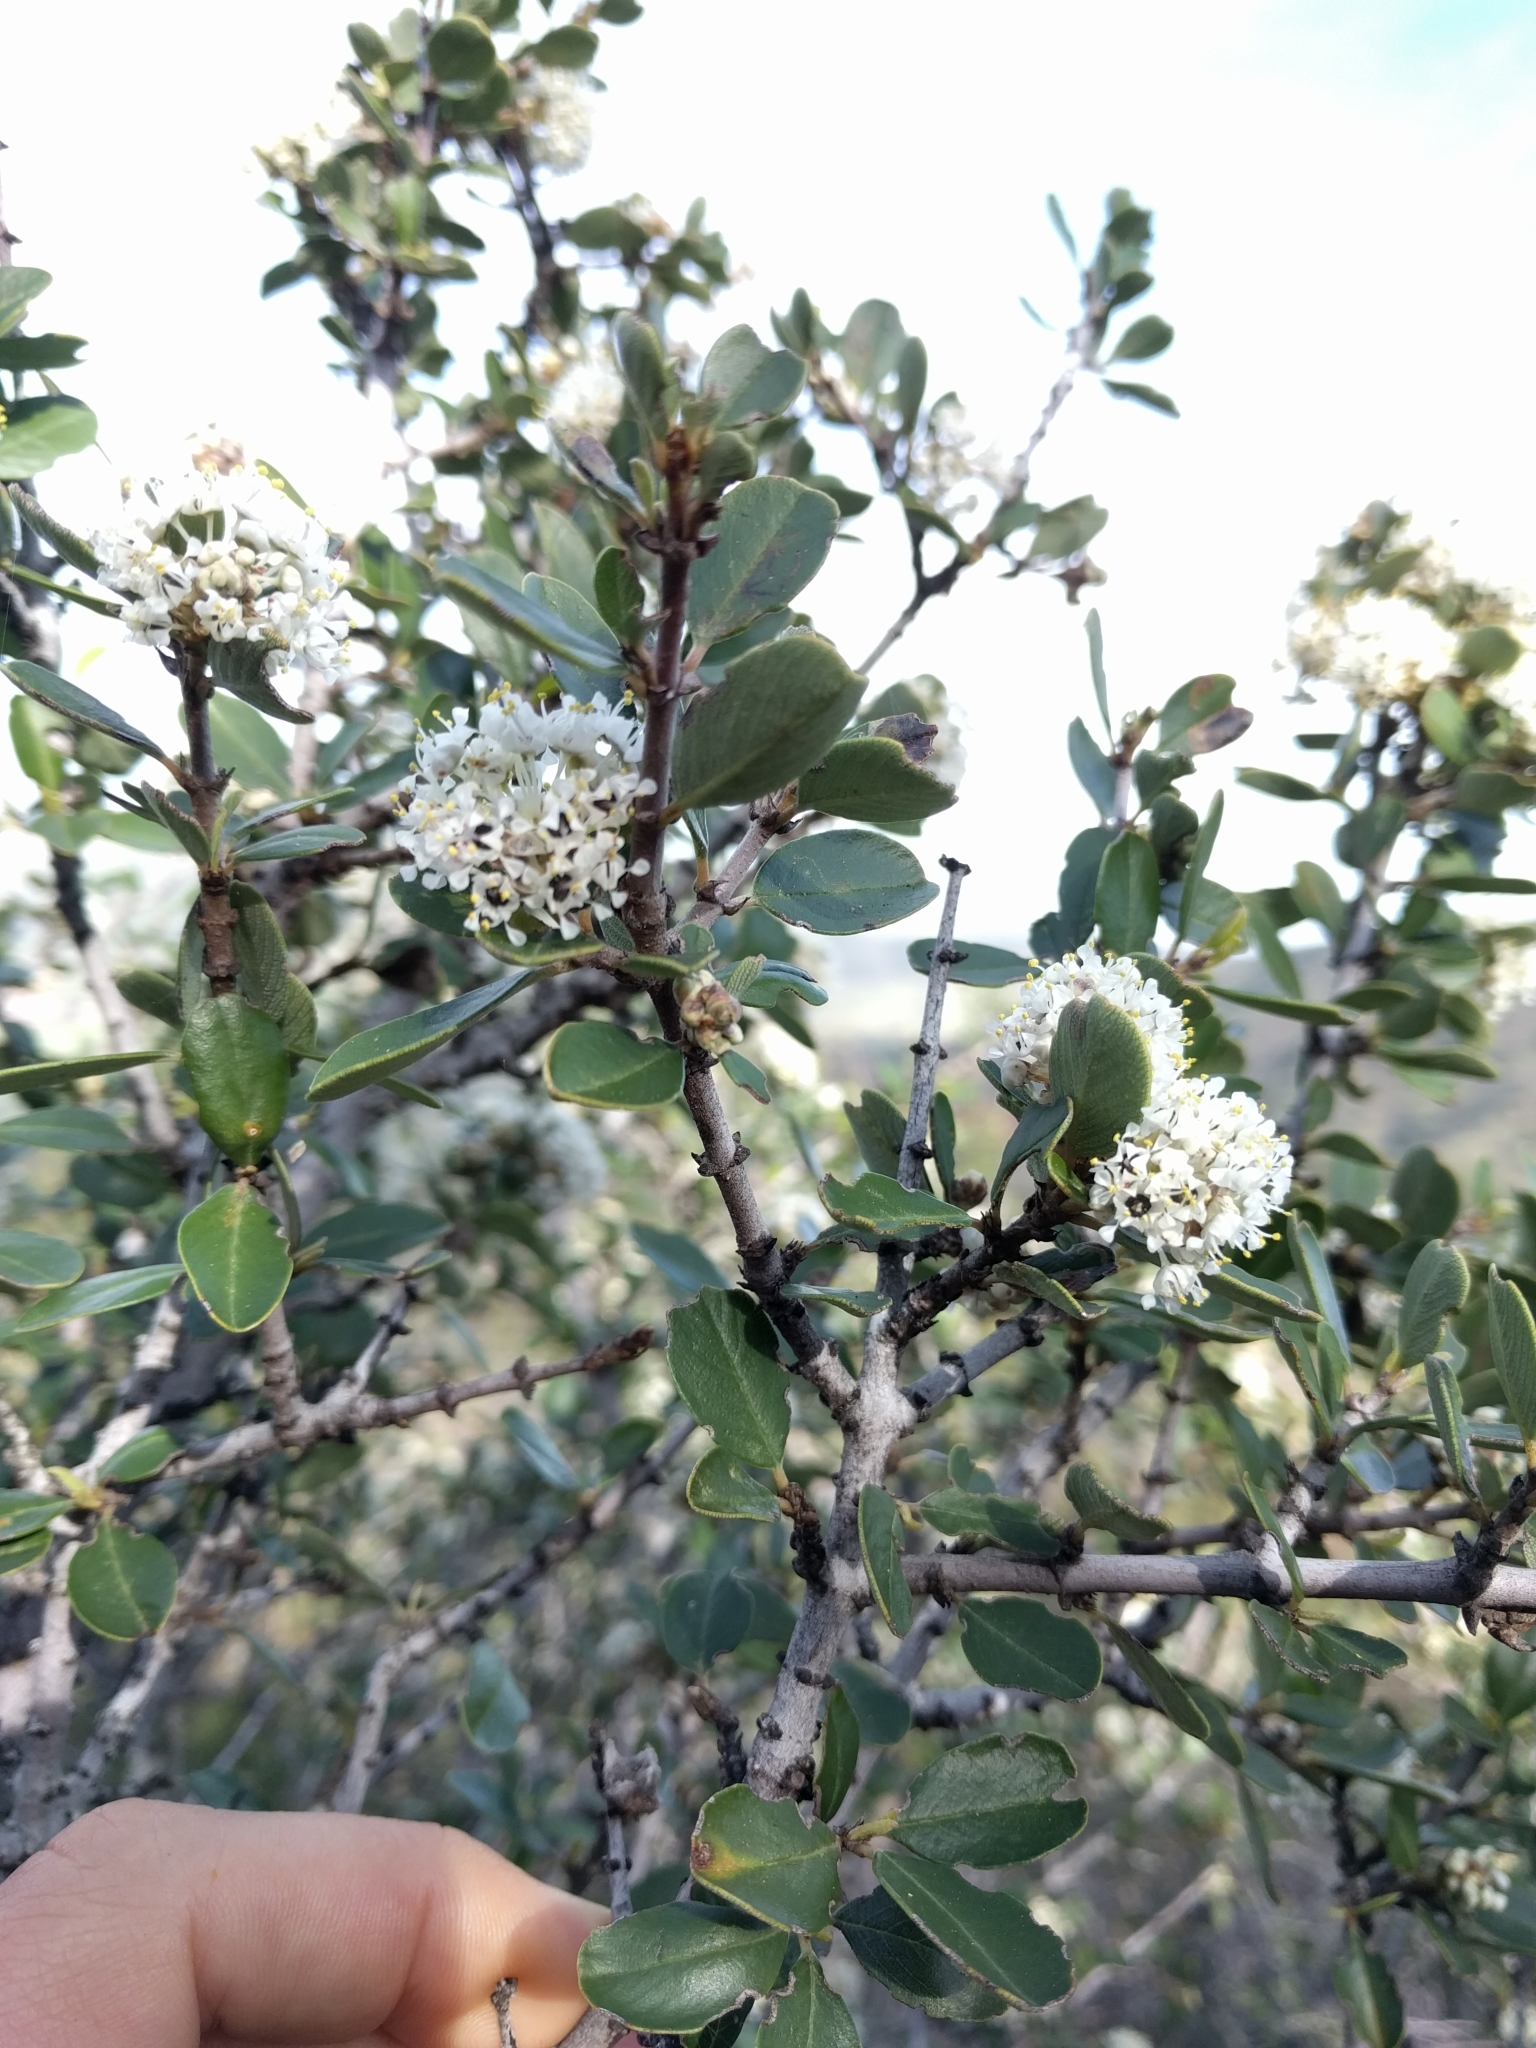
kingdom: Plantae
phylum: Tracheophyta
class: Magnoliopsida
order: Rosales
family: Rhamnaceae
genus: Ceanothus
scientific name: Ceanothus cuneatus
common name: Cuneate ceanothus
